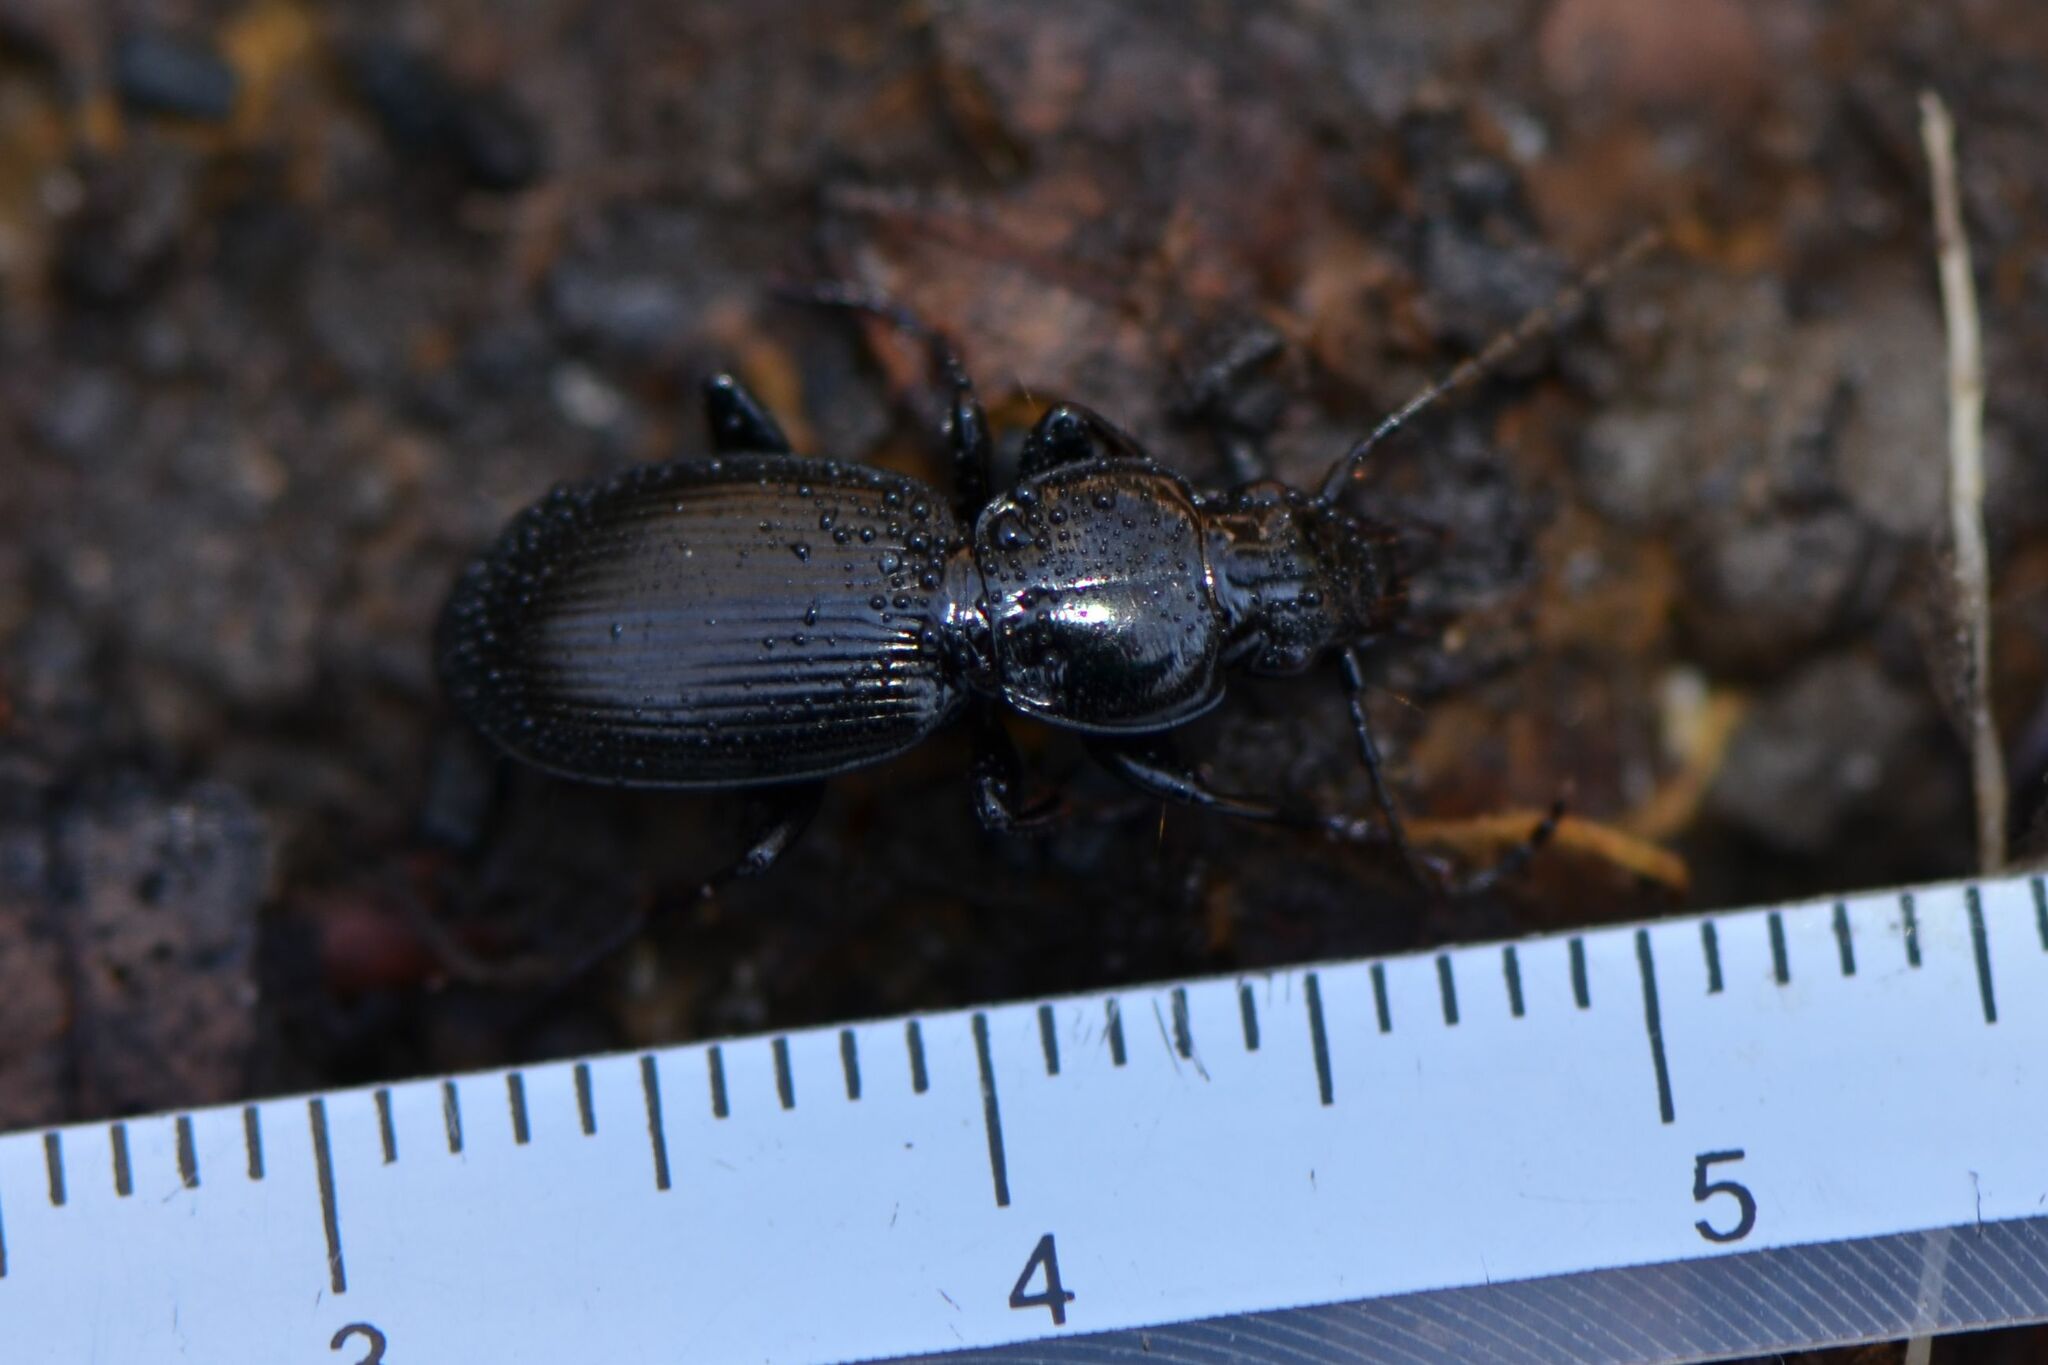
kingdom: Animalia
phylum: Arthropoda
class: Insecta
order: Coleoptera
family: Carabidae
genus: Pterostichus
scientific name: Pterostichus madidus
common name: Black clock
